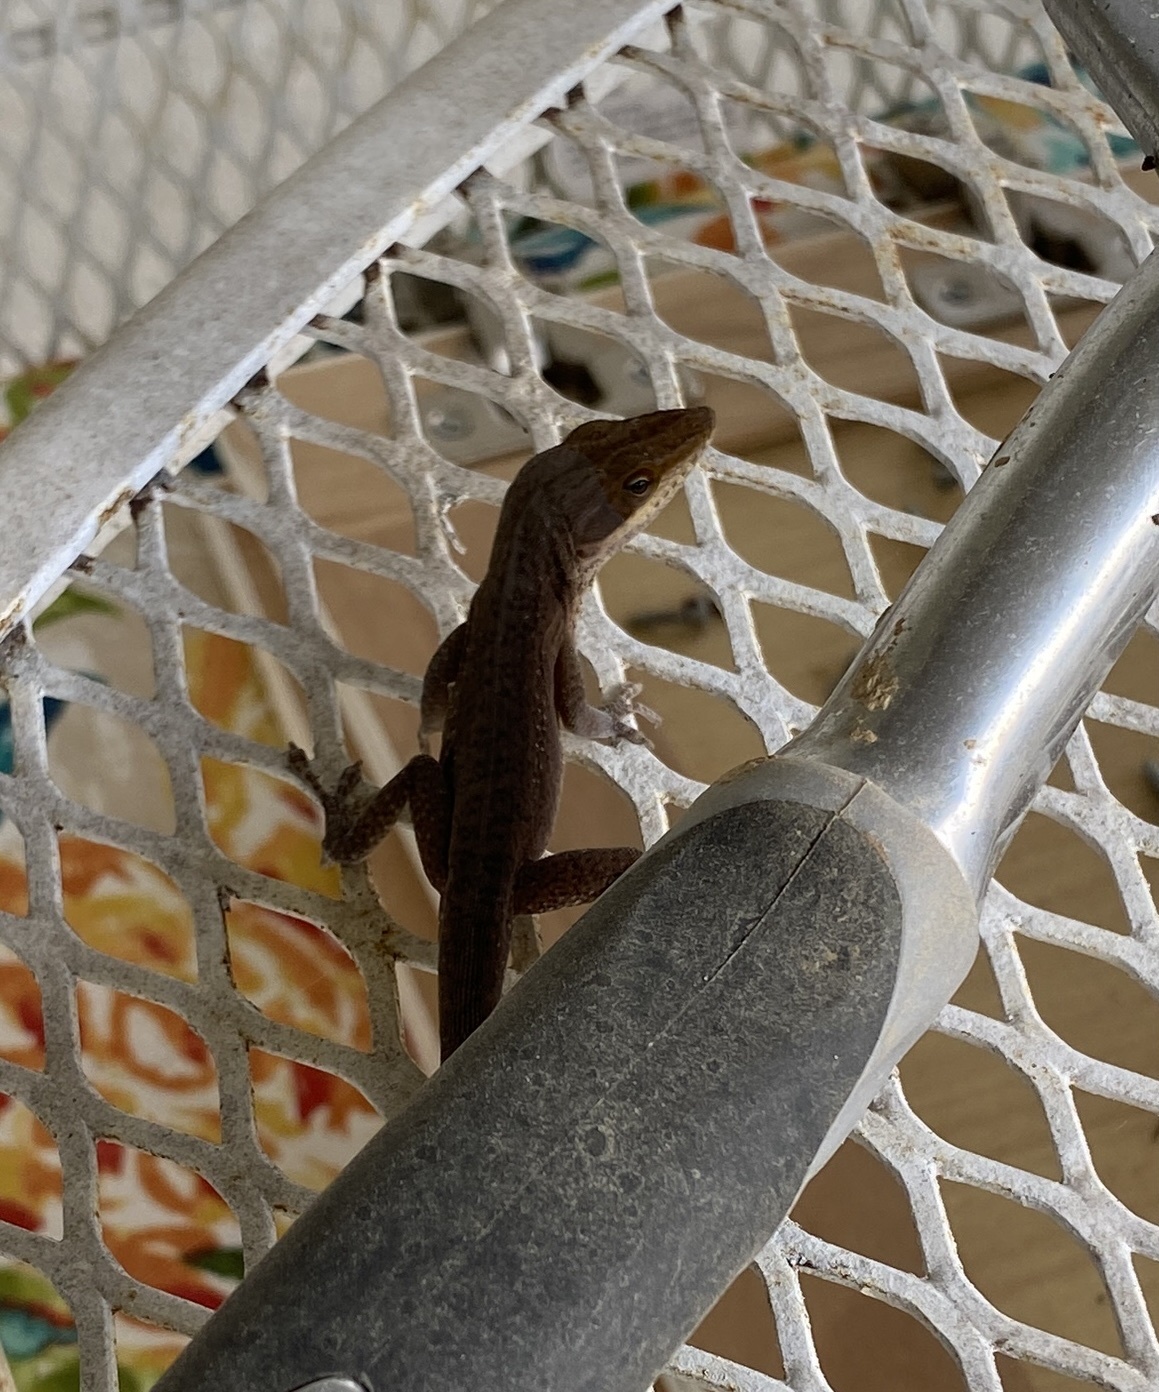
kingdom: Animalia
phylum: Chordata
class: Squamata
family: Dactyloidae
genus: Anolis
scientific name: Anolis carolinensis
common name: Green anole
